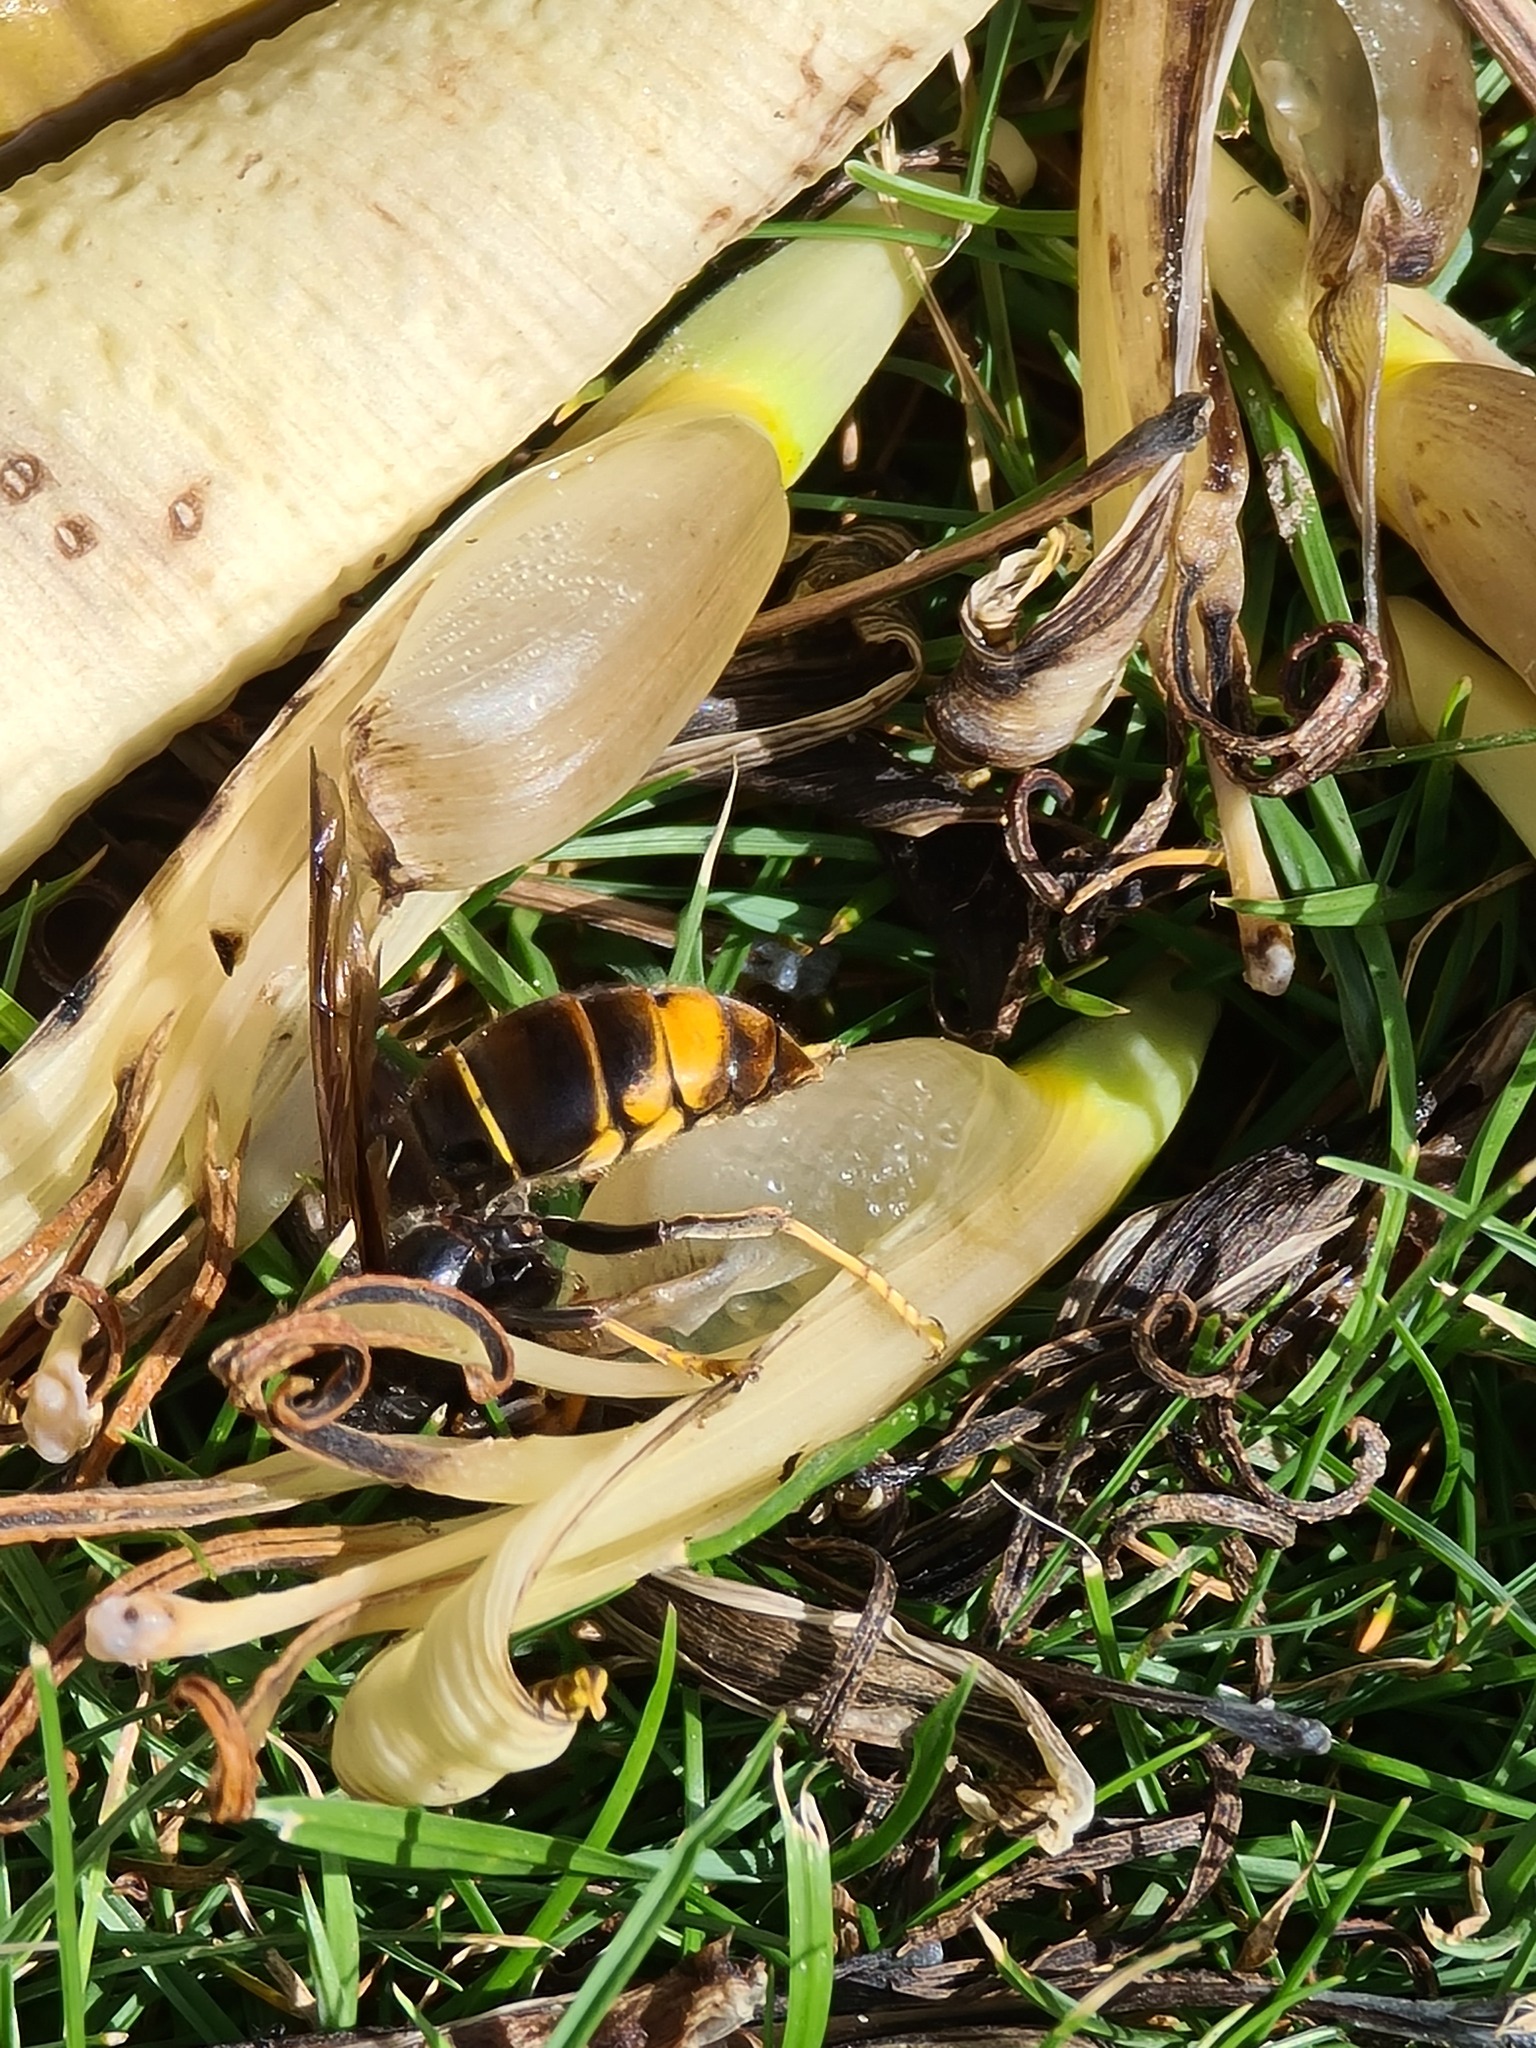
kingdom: Animalia
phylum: Arthropoda
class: Insecta
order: Hymenoptera
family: Vespidae
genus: Vespa
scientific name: Vespa velutina
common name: Asian hornet
